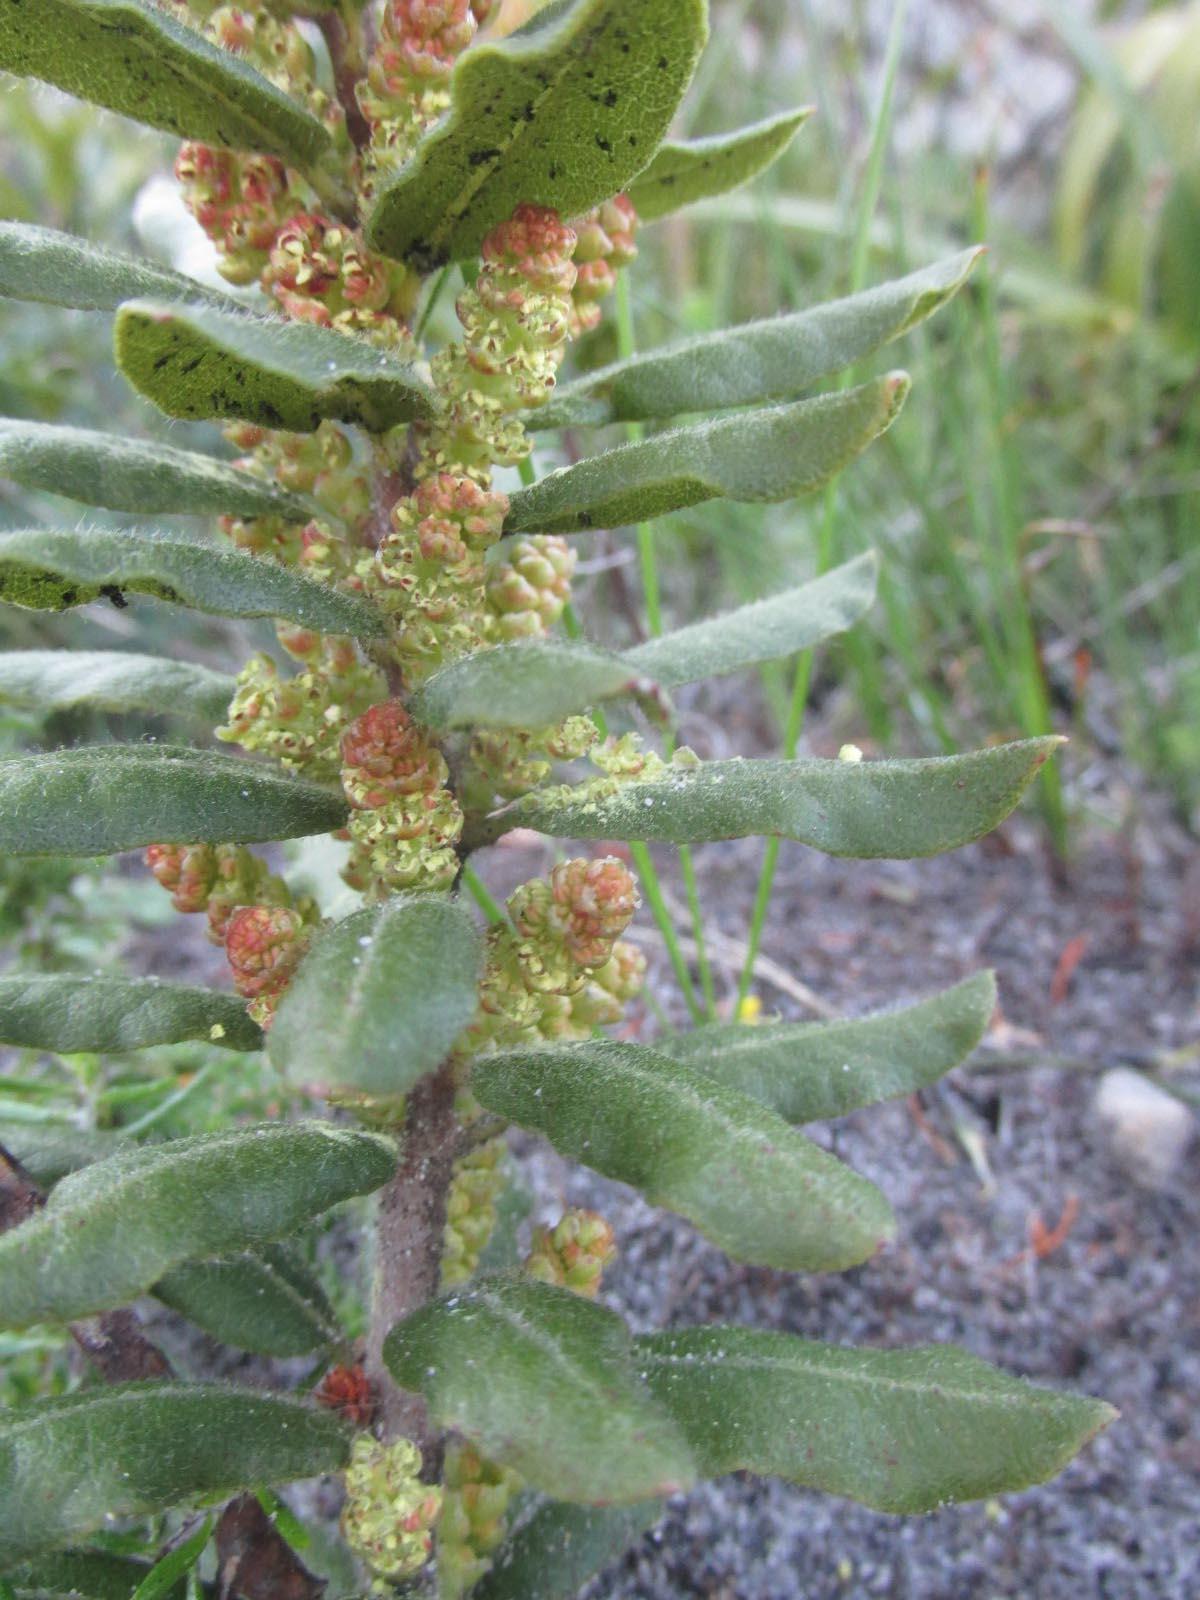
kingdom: Plantae
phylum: Tracheophyta
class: Magnoliopsida
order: Fagales
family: Myricaceae
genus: Morella
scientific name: Morella kraussiana
